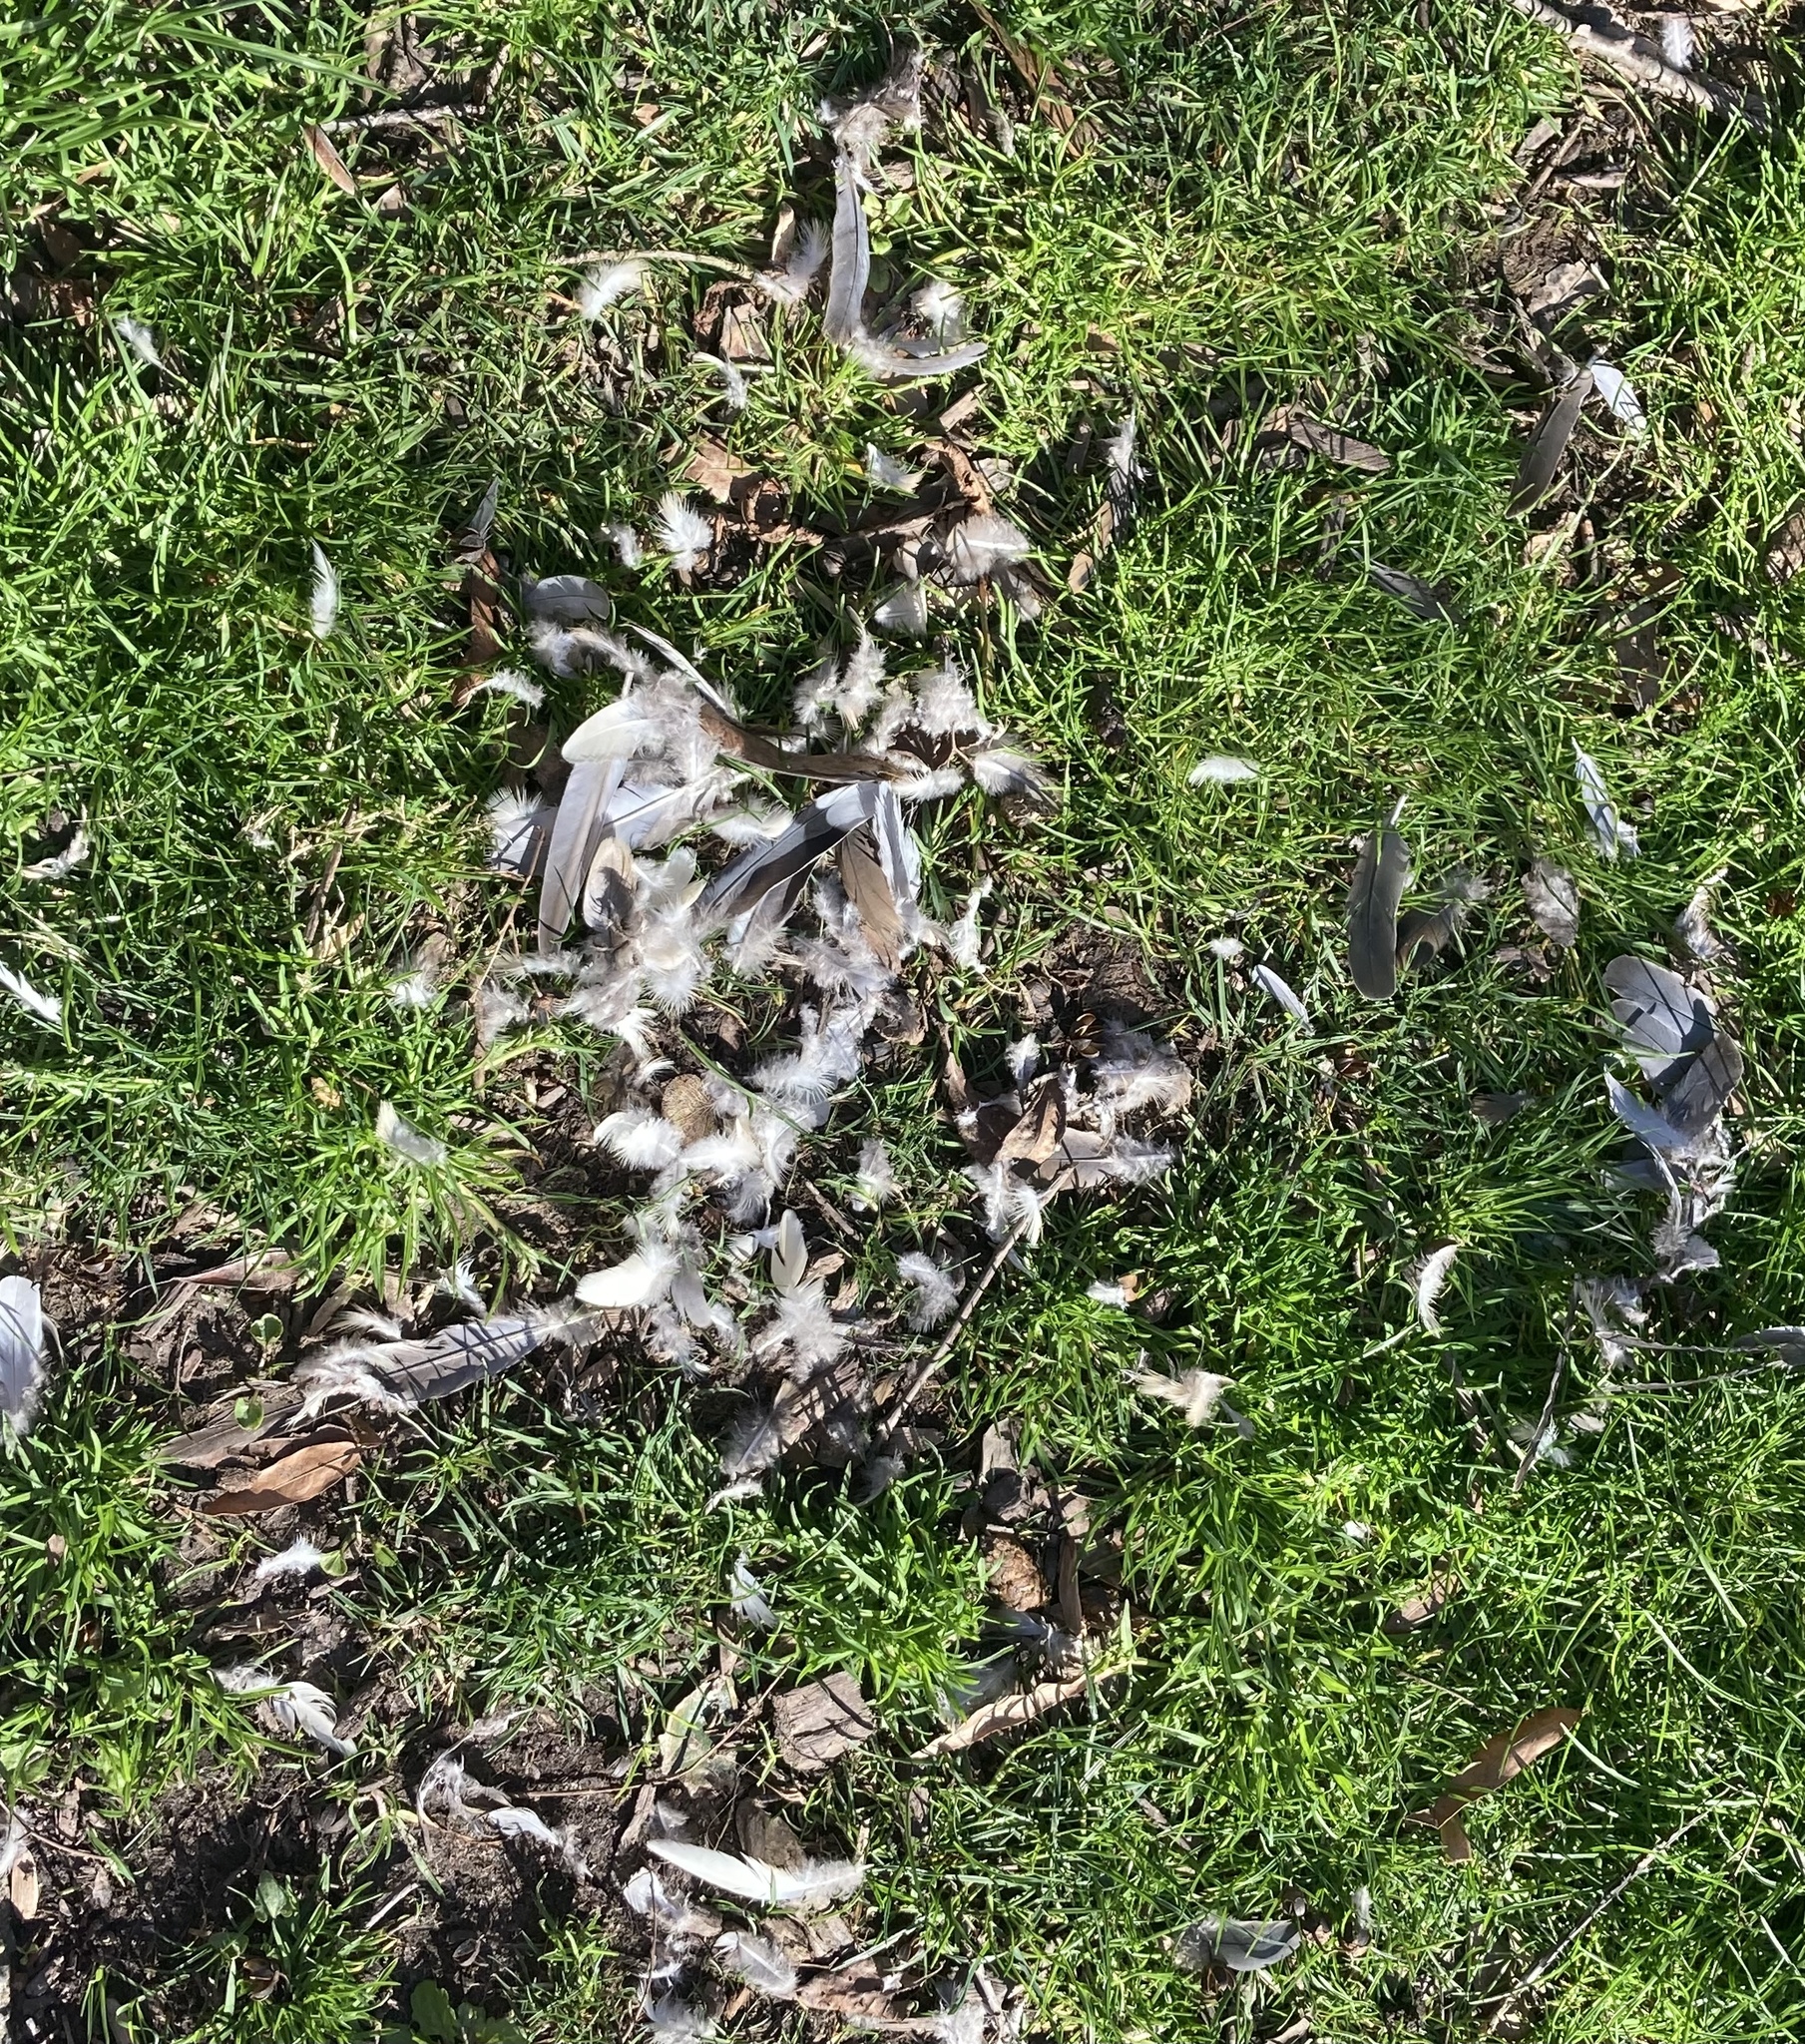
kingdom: Animalia
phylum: Chordata
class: Aves
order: Columbiformes
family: Columbidae
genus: Zenaida
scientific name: Zenaida macroura
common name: Mourning dove
